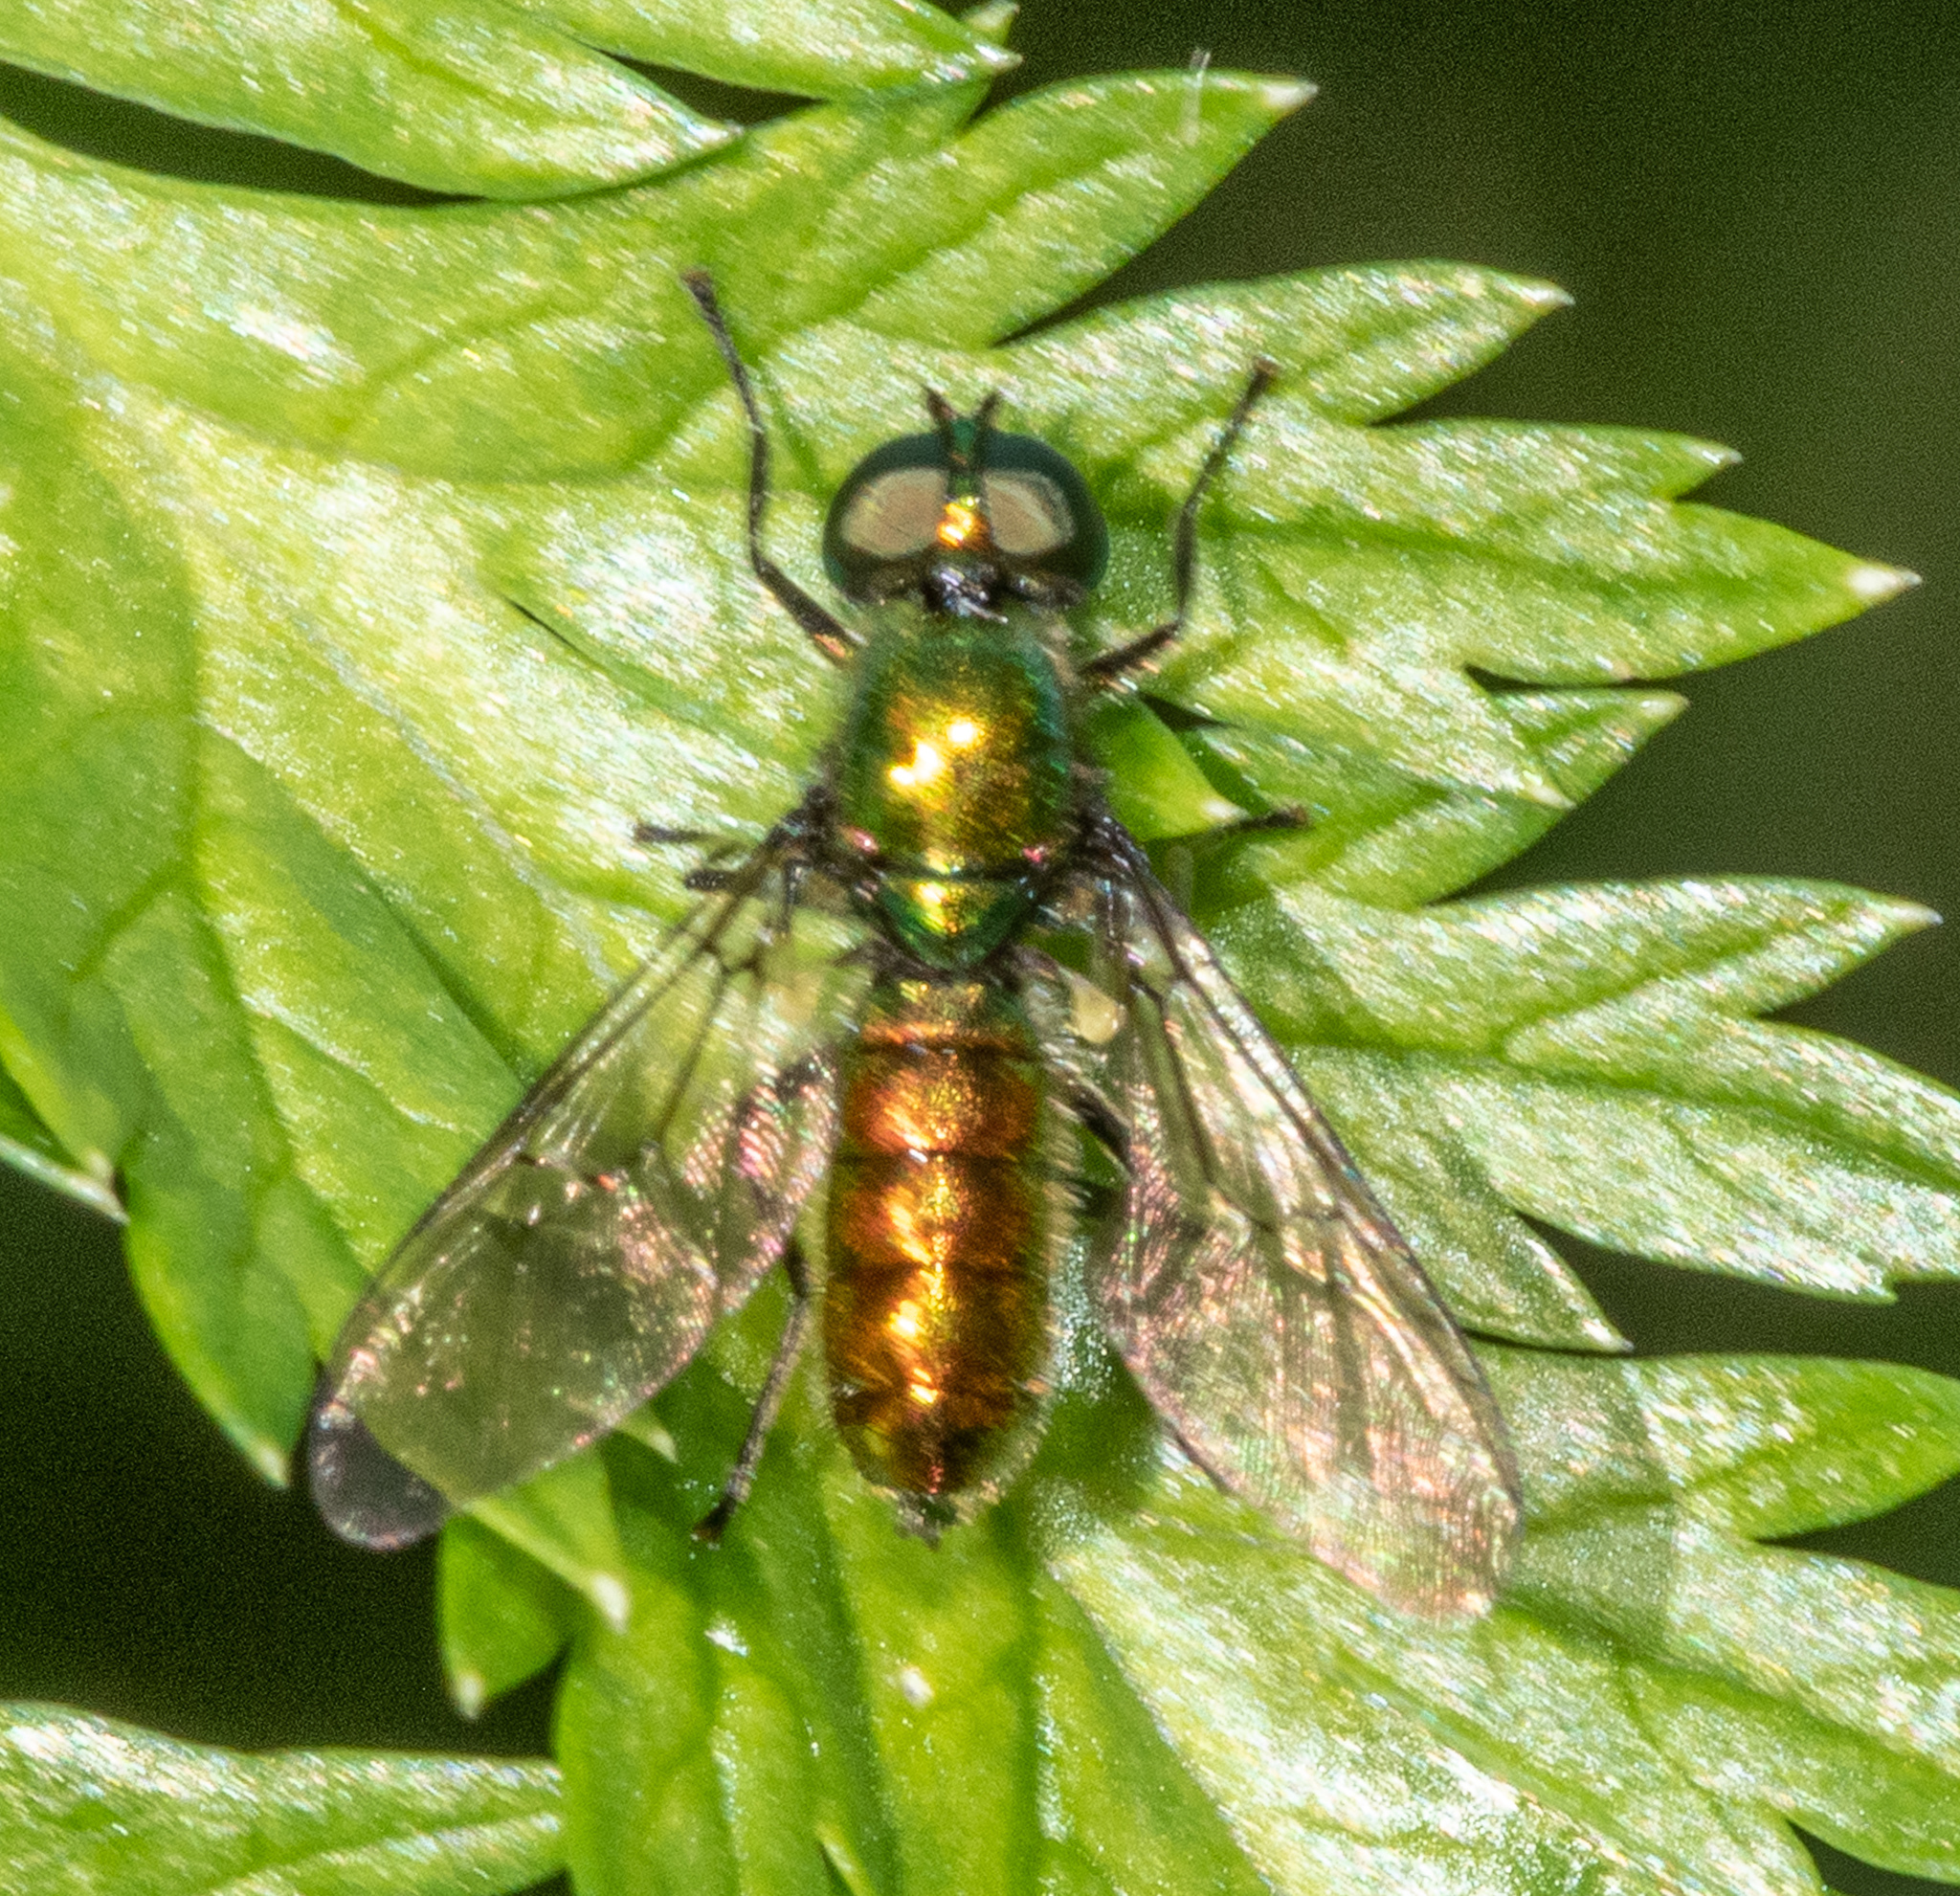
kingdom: Animalia
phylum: Arthropoda
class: Insecta
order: Diptera
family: Stratiomyidae
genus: Sargus
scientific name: Sargus viridis
